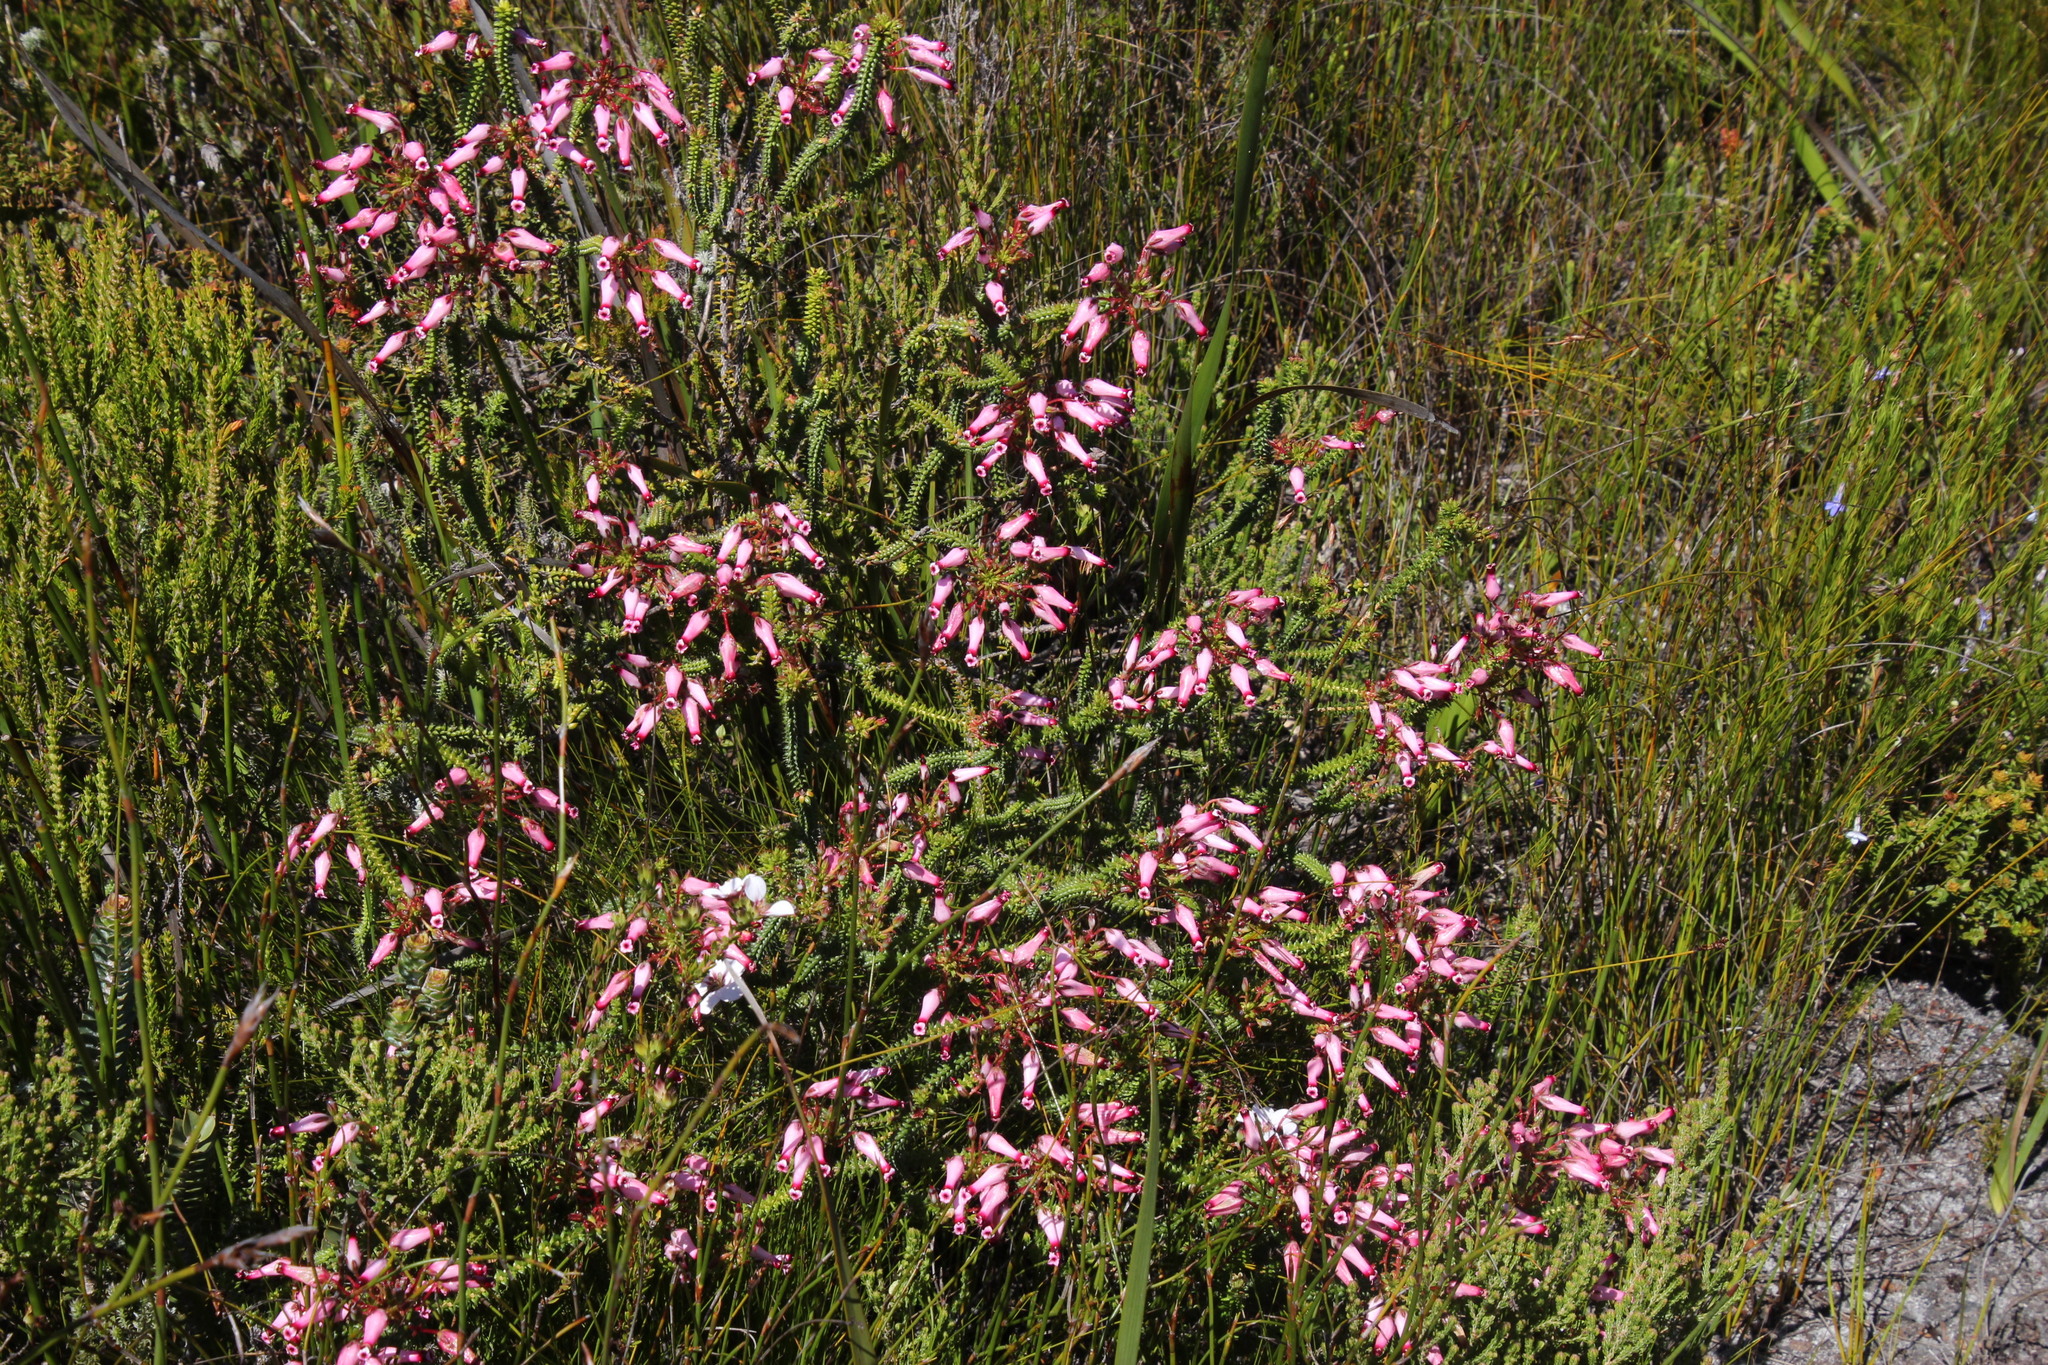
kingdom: Plantae
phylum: Tracheophyta
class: Magnoliopsida
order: Ericales
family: Ericaceae
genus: Erica
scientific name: Erica retorta
